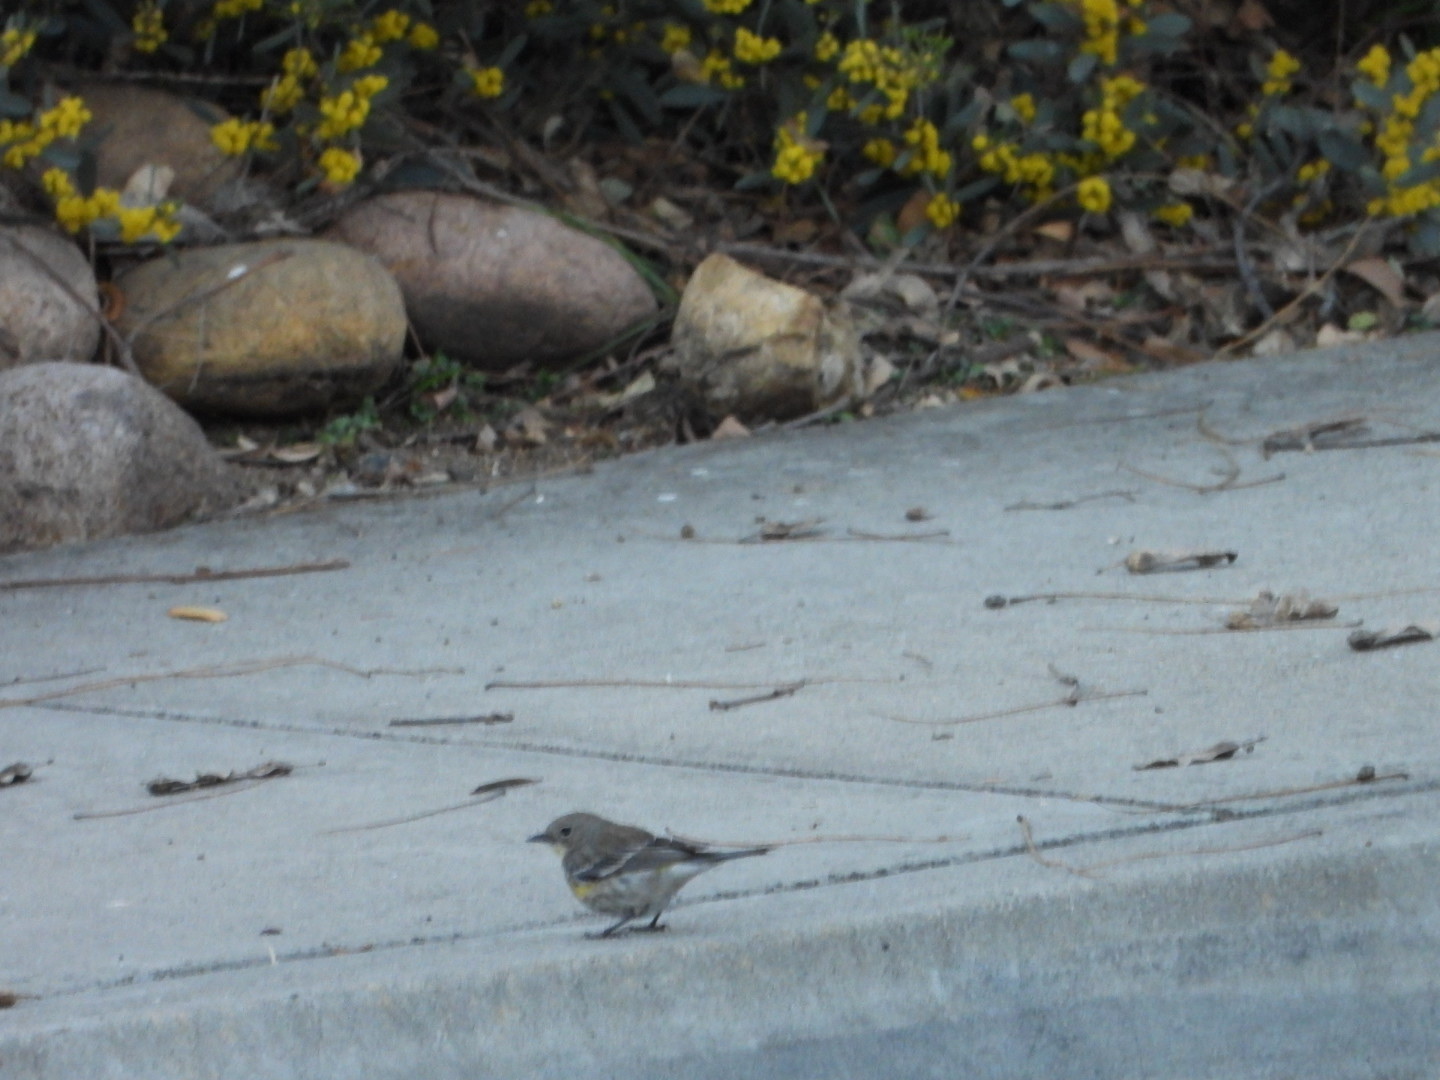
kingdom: Animalia
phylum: Chordata
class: Aves
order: Passeriformes
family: Parulidae
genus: Setophaga
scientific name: Setophaga coronata
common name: Myrtle warbler
